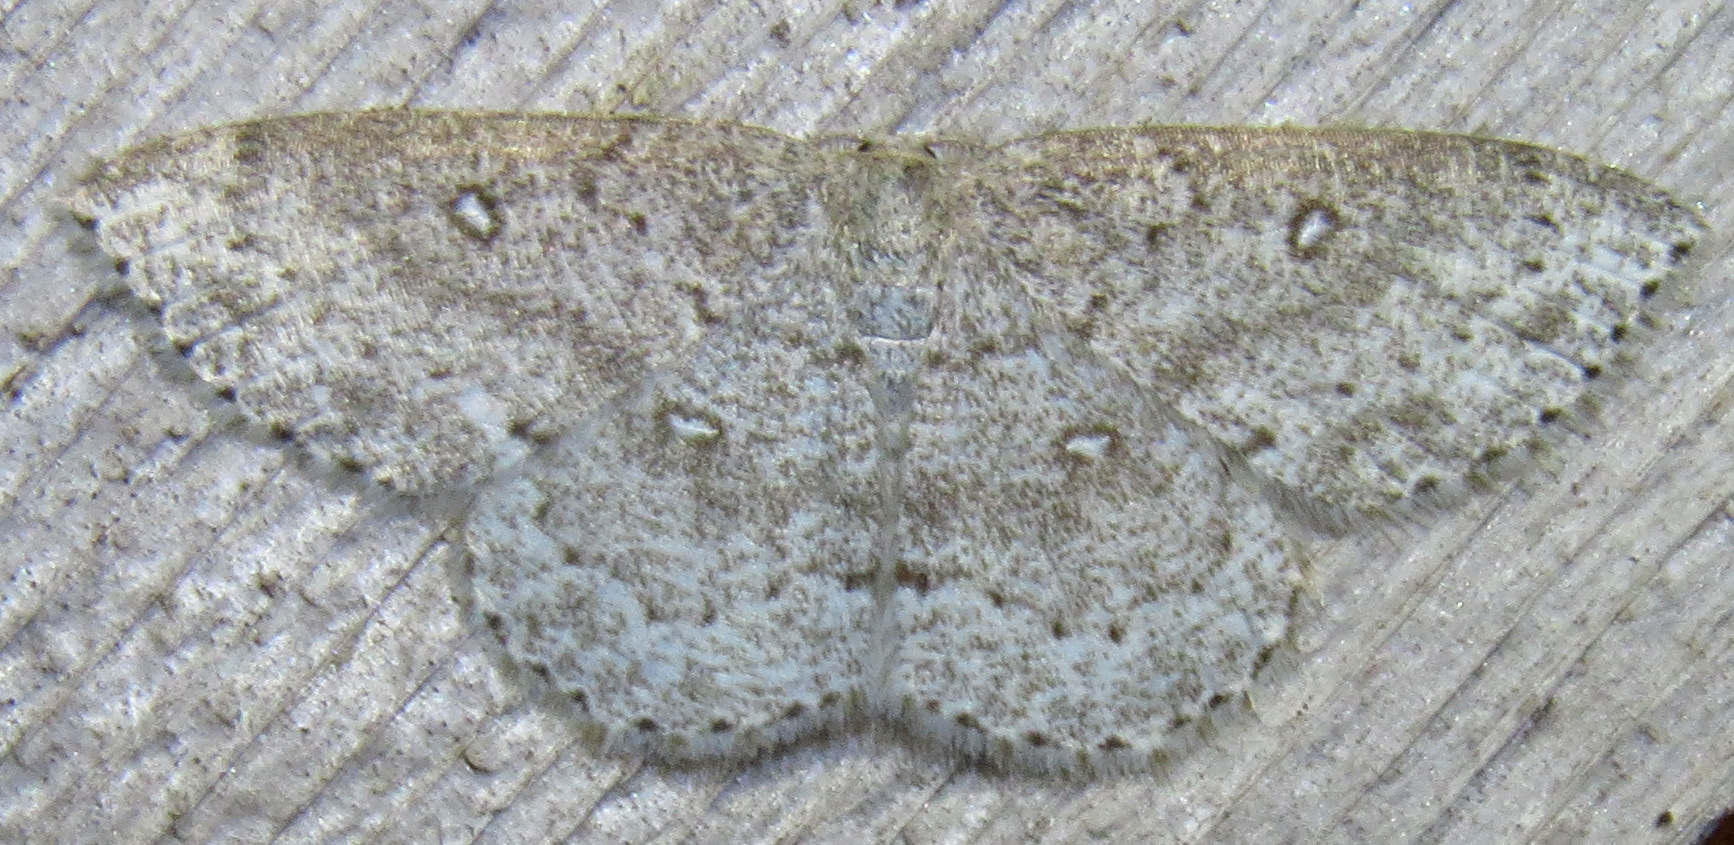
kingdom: Animalia
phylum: Arthropoda
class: Insecta
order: Lepidoptera
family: Geometridae
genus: Cyclophora
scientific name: Cyclophora pendulinaria
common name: Sweet fern geometer
